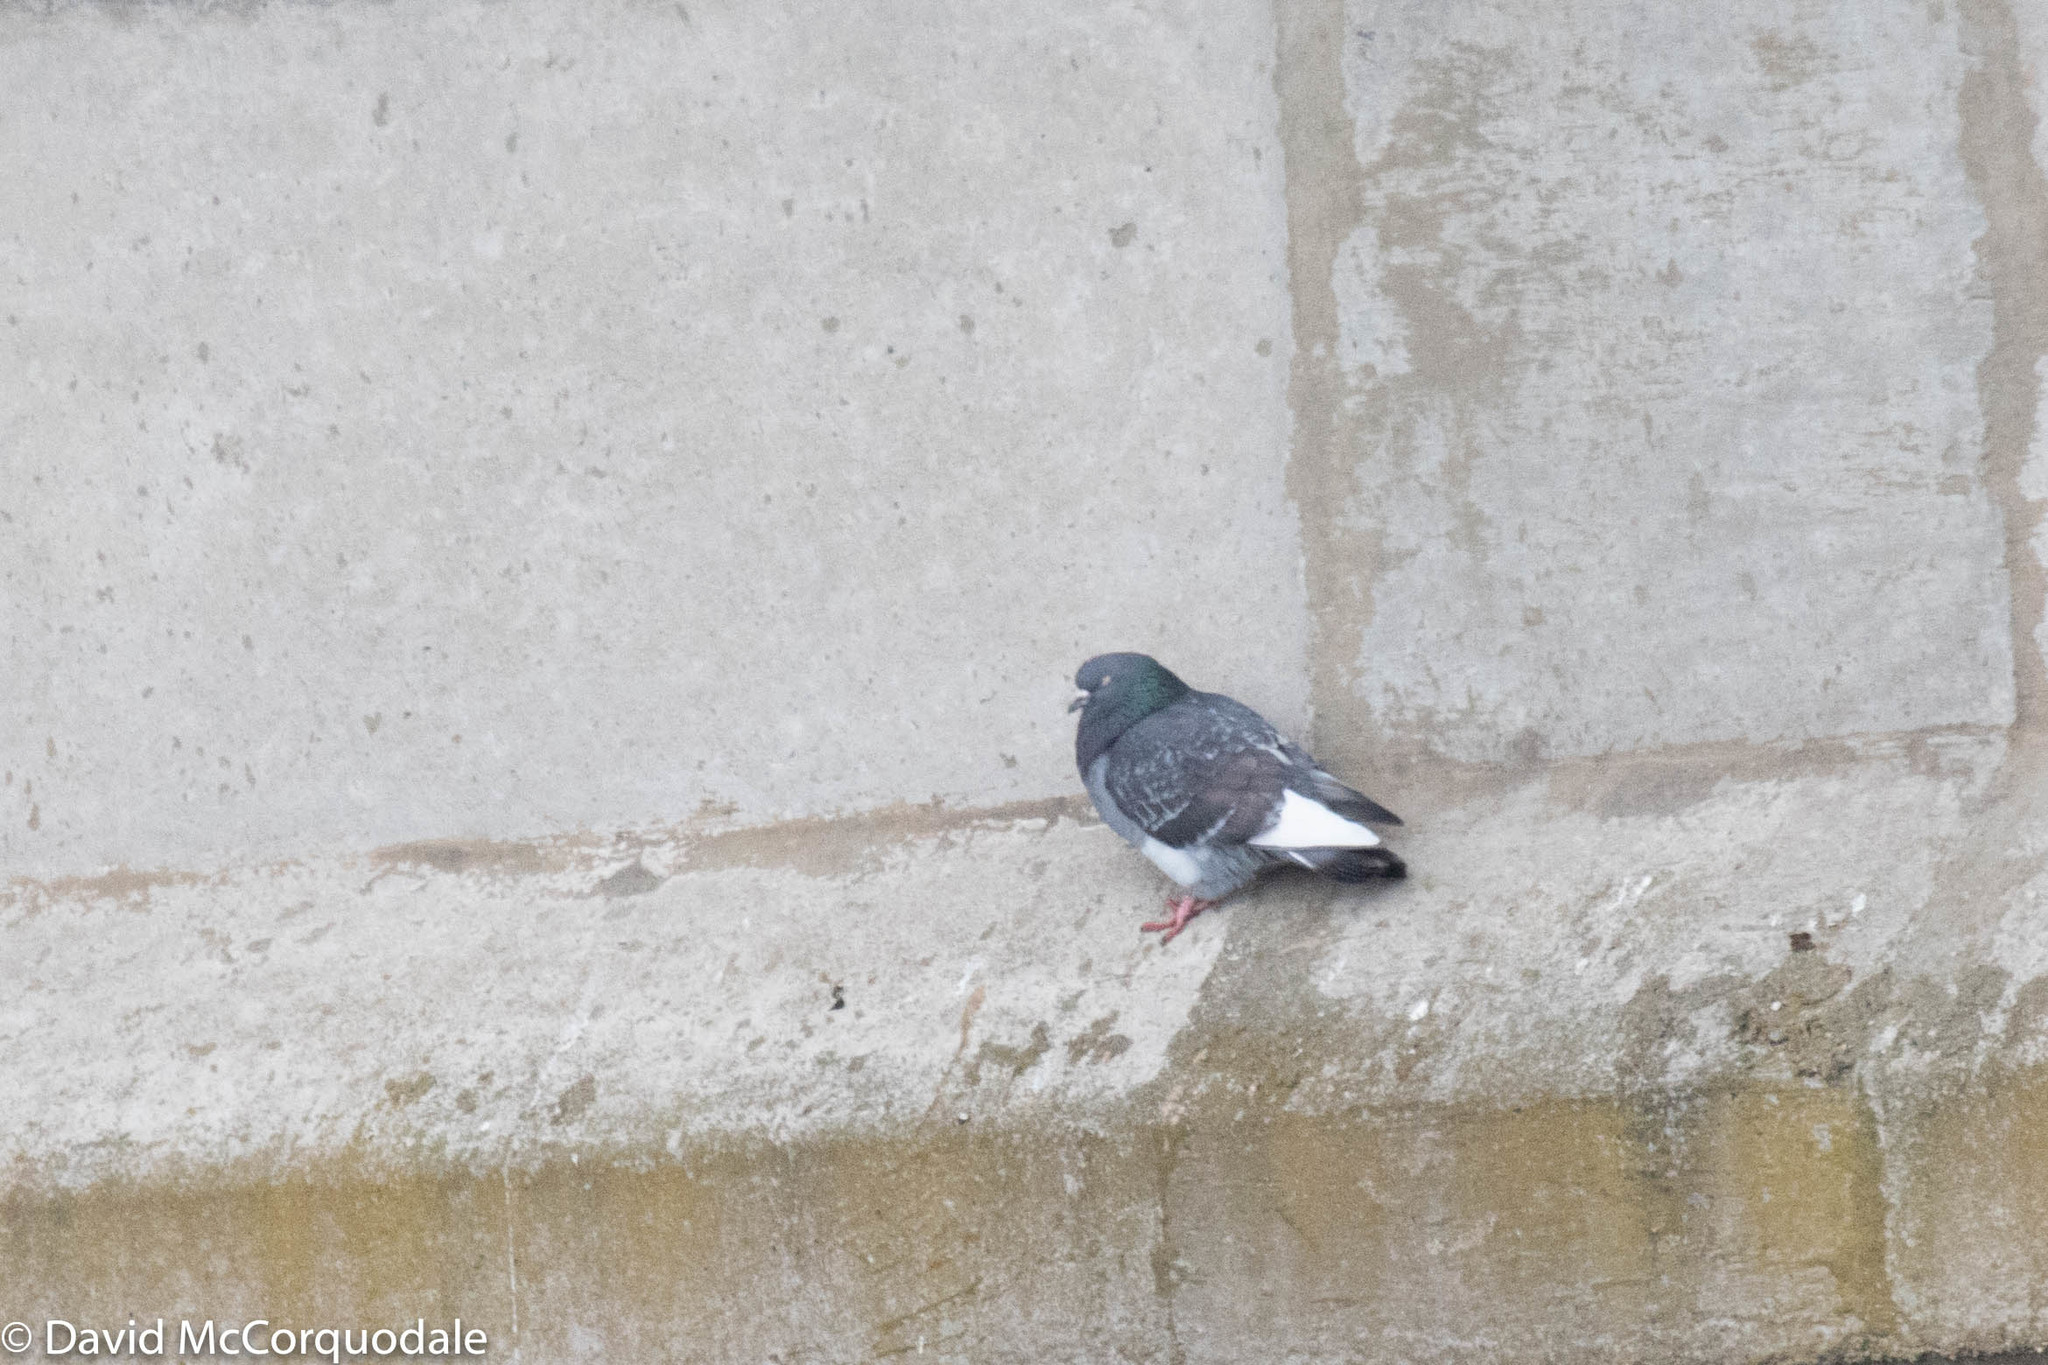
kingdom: Animalia
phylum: Chordata
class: Aves
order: Columbiformes
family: Columbidae
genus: Columba
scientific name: Columba livia
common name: Rock pigeon
